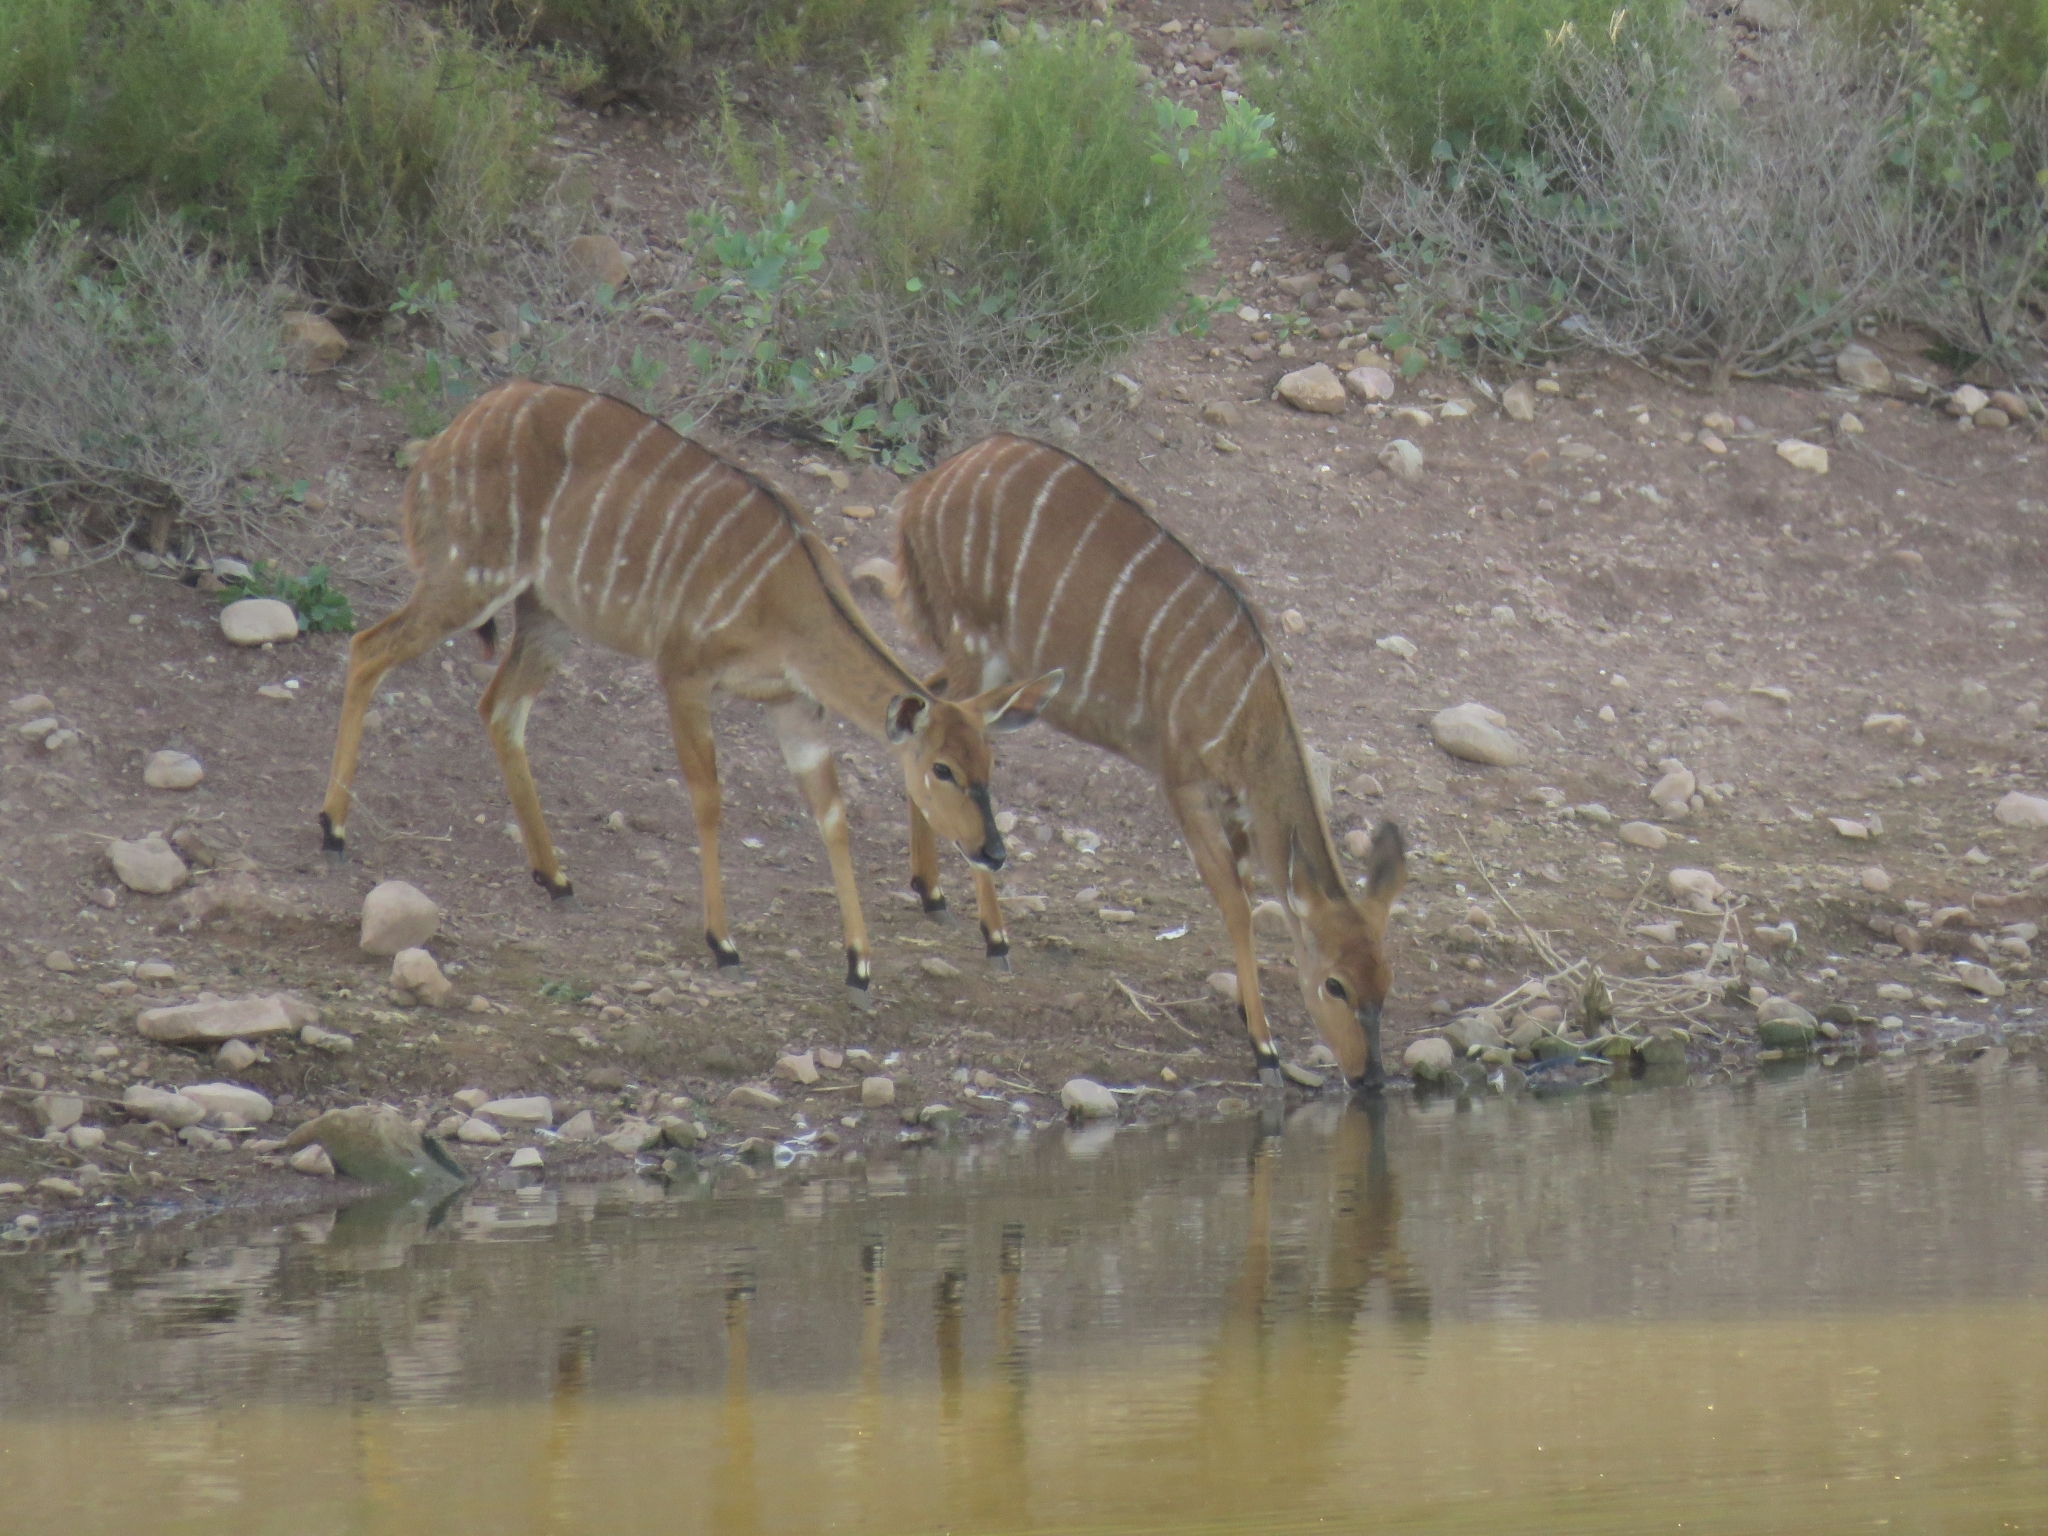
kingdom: Animalia
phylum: Chordata
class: Mammalia
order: Artiodactyla
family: Bovidae
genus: Tragelaphus
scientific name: Tragelaphus angasii
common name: Nyala
